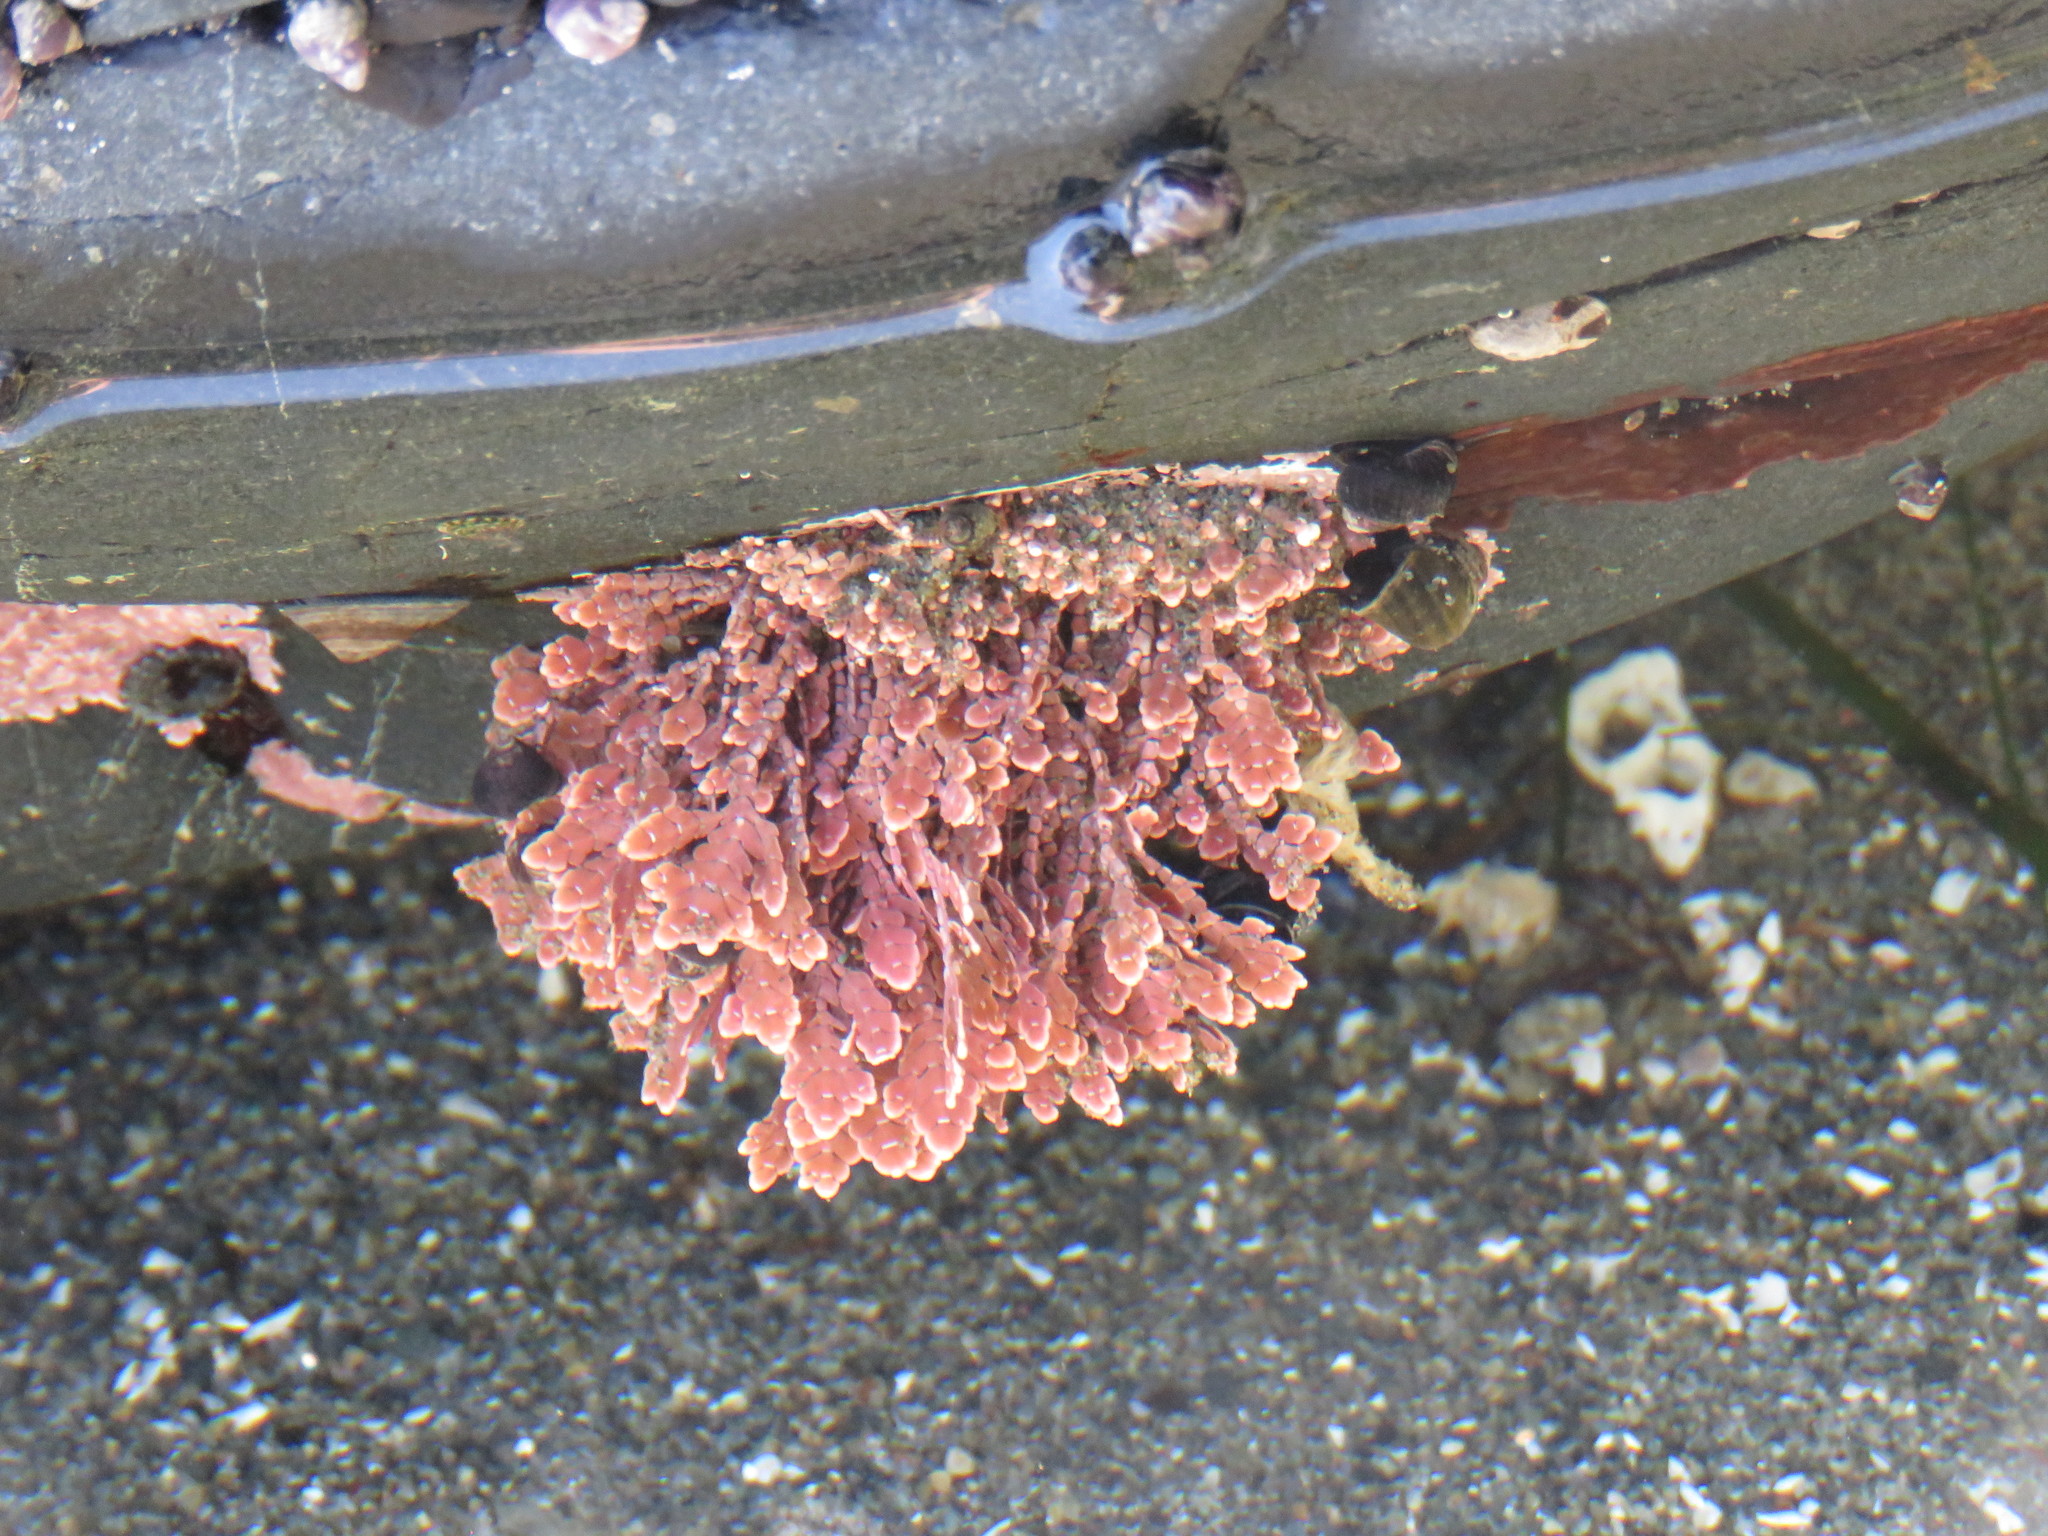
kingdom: Plantae
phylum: Rhodophyta
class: Florideophyceae
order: Corallinales
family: Corallinaceae
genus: Corallina
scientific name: Corallina officinalis
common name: Coral weed
